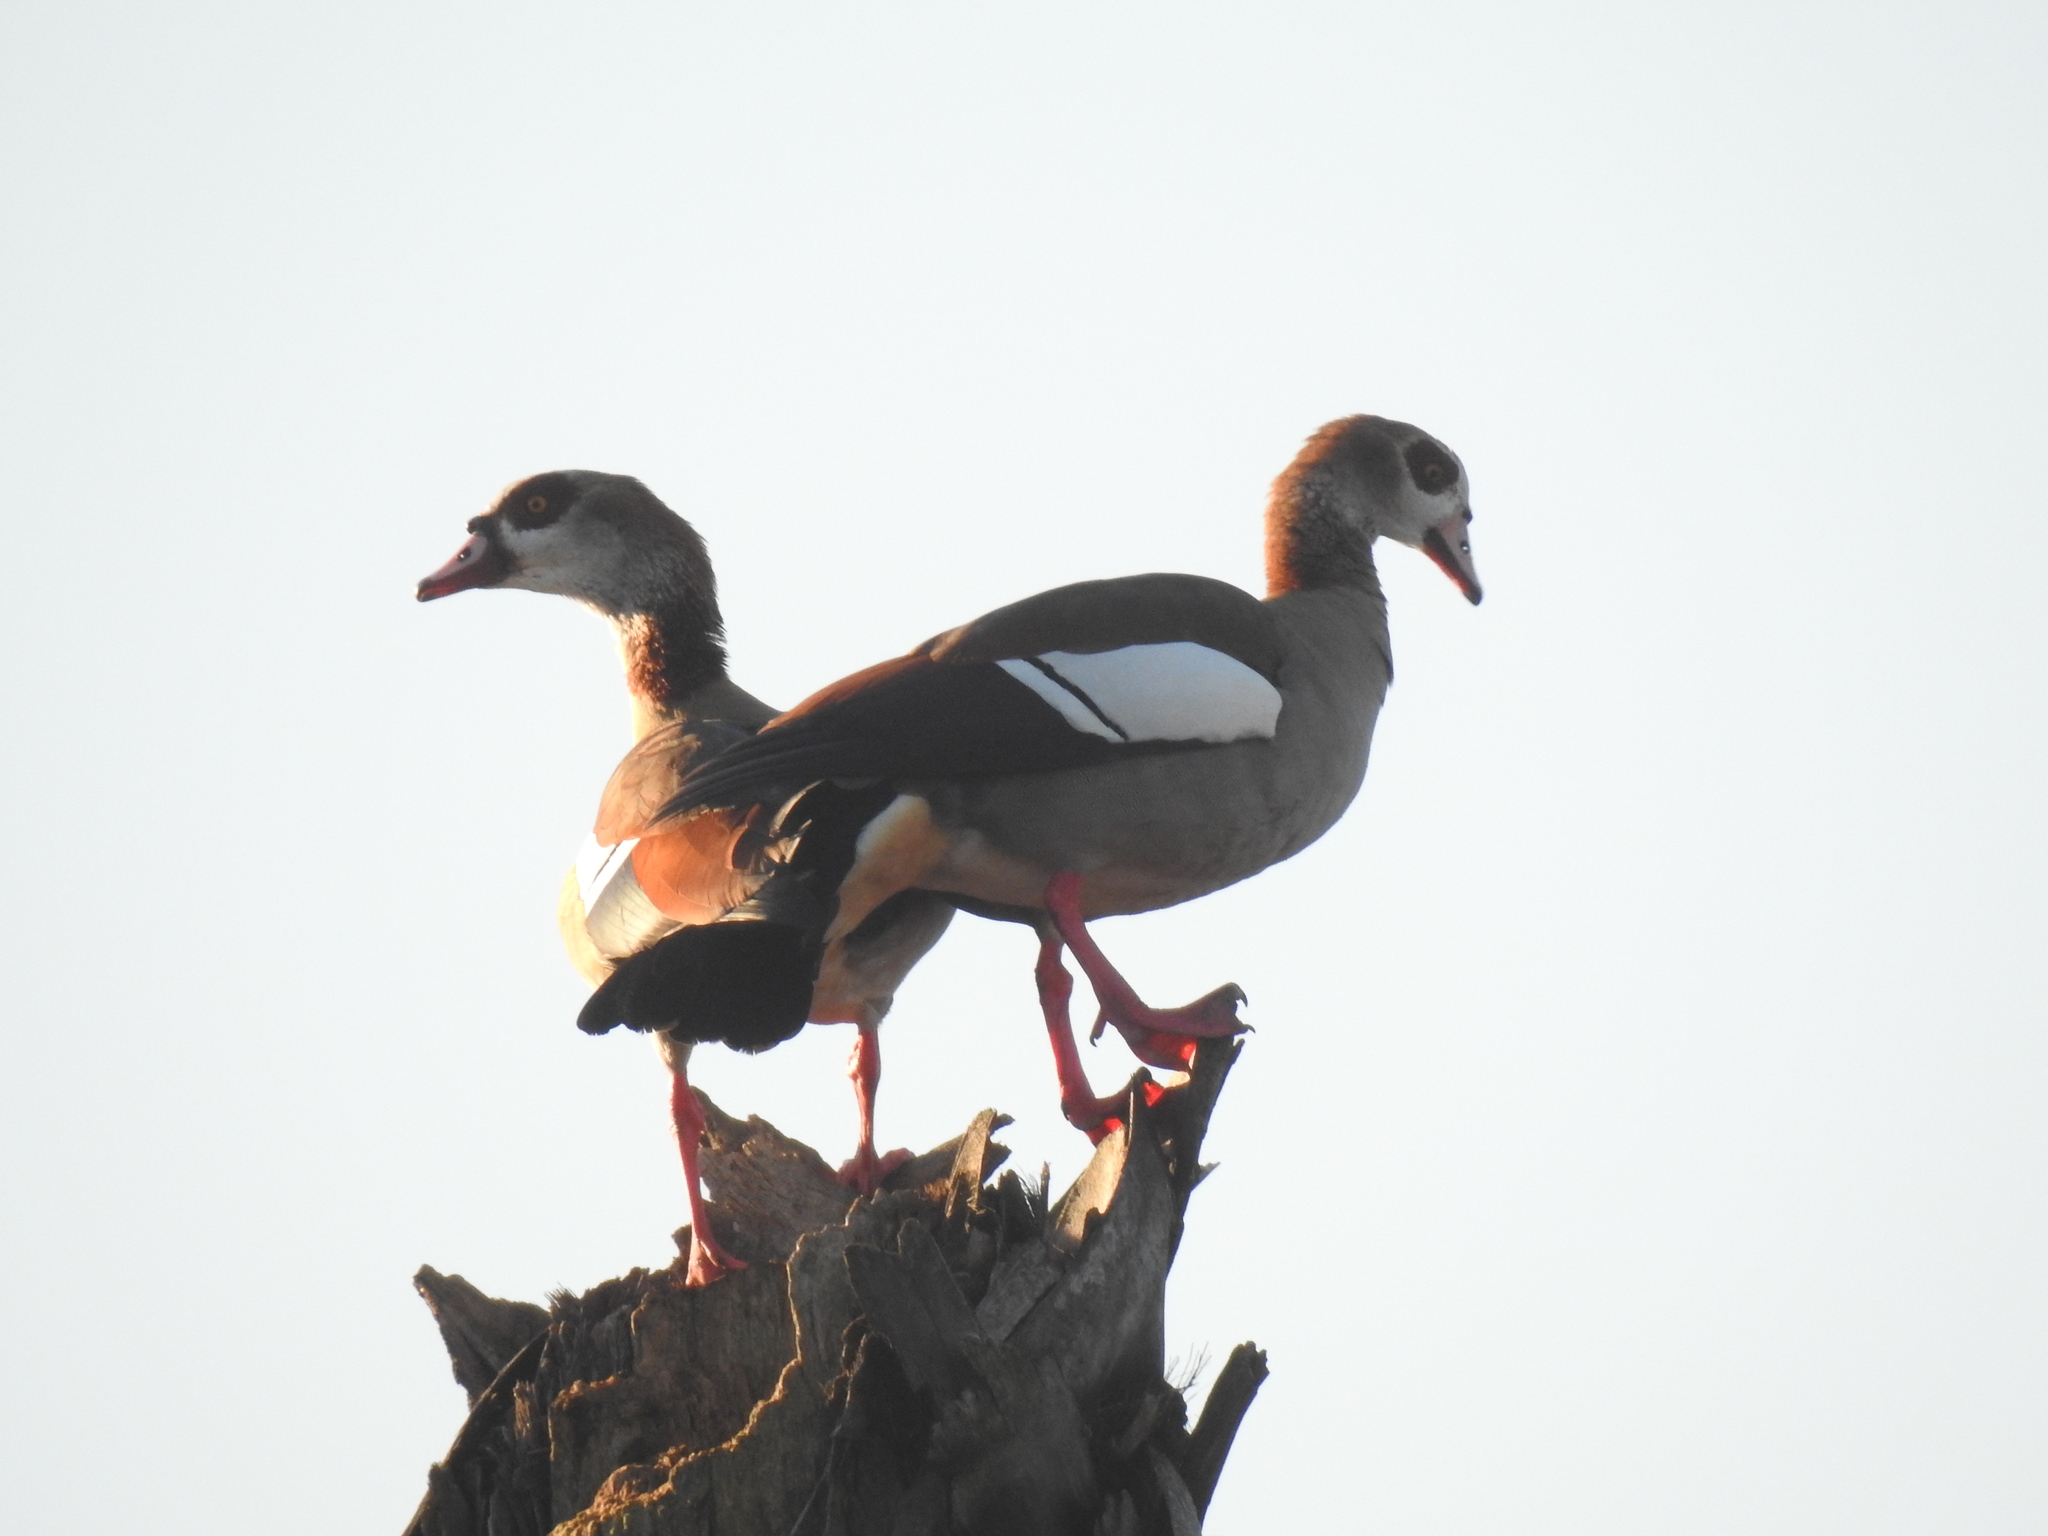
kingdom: Animalia
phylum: Chordata
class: Aves
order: Anseriformes
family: Anatidae
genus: Alopochen
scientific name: Alopochen aegyptiaca
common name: Egyptian goose
